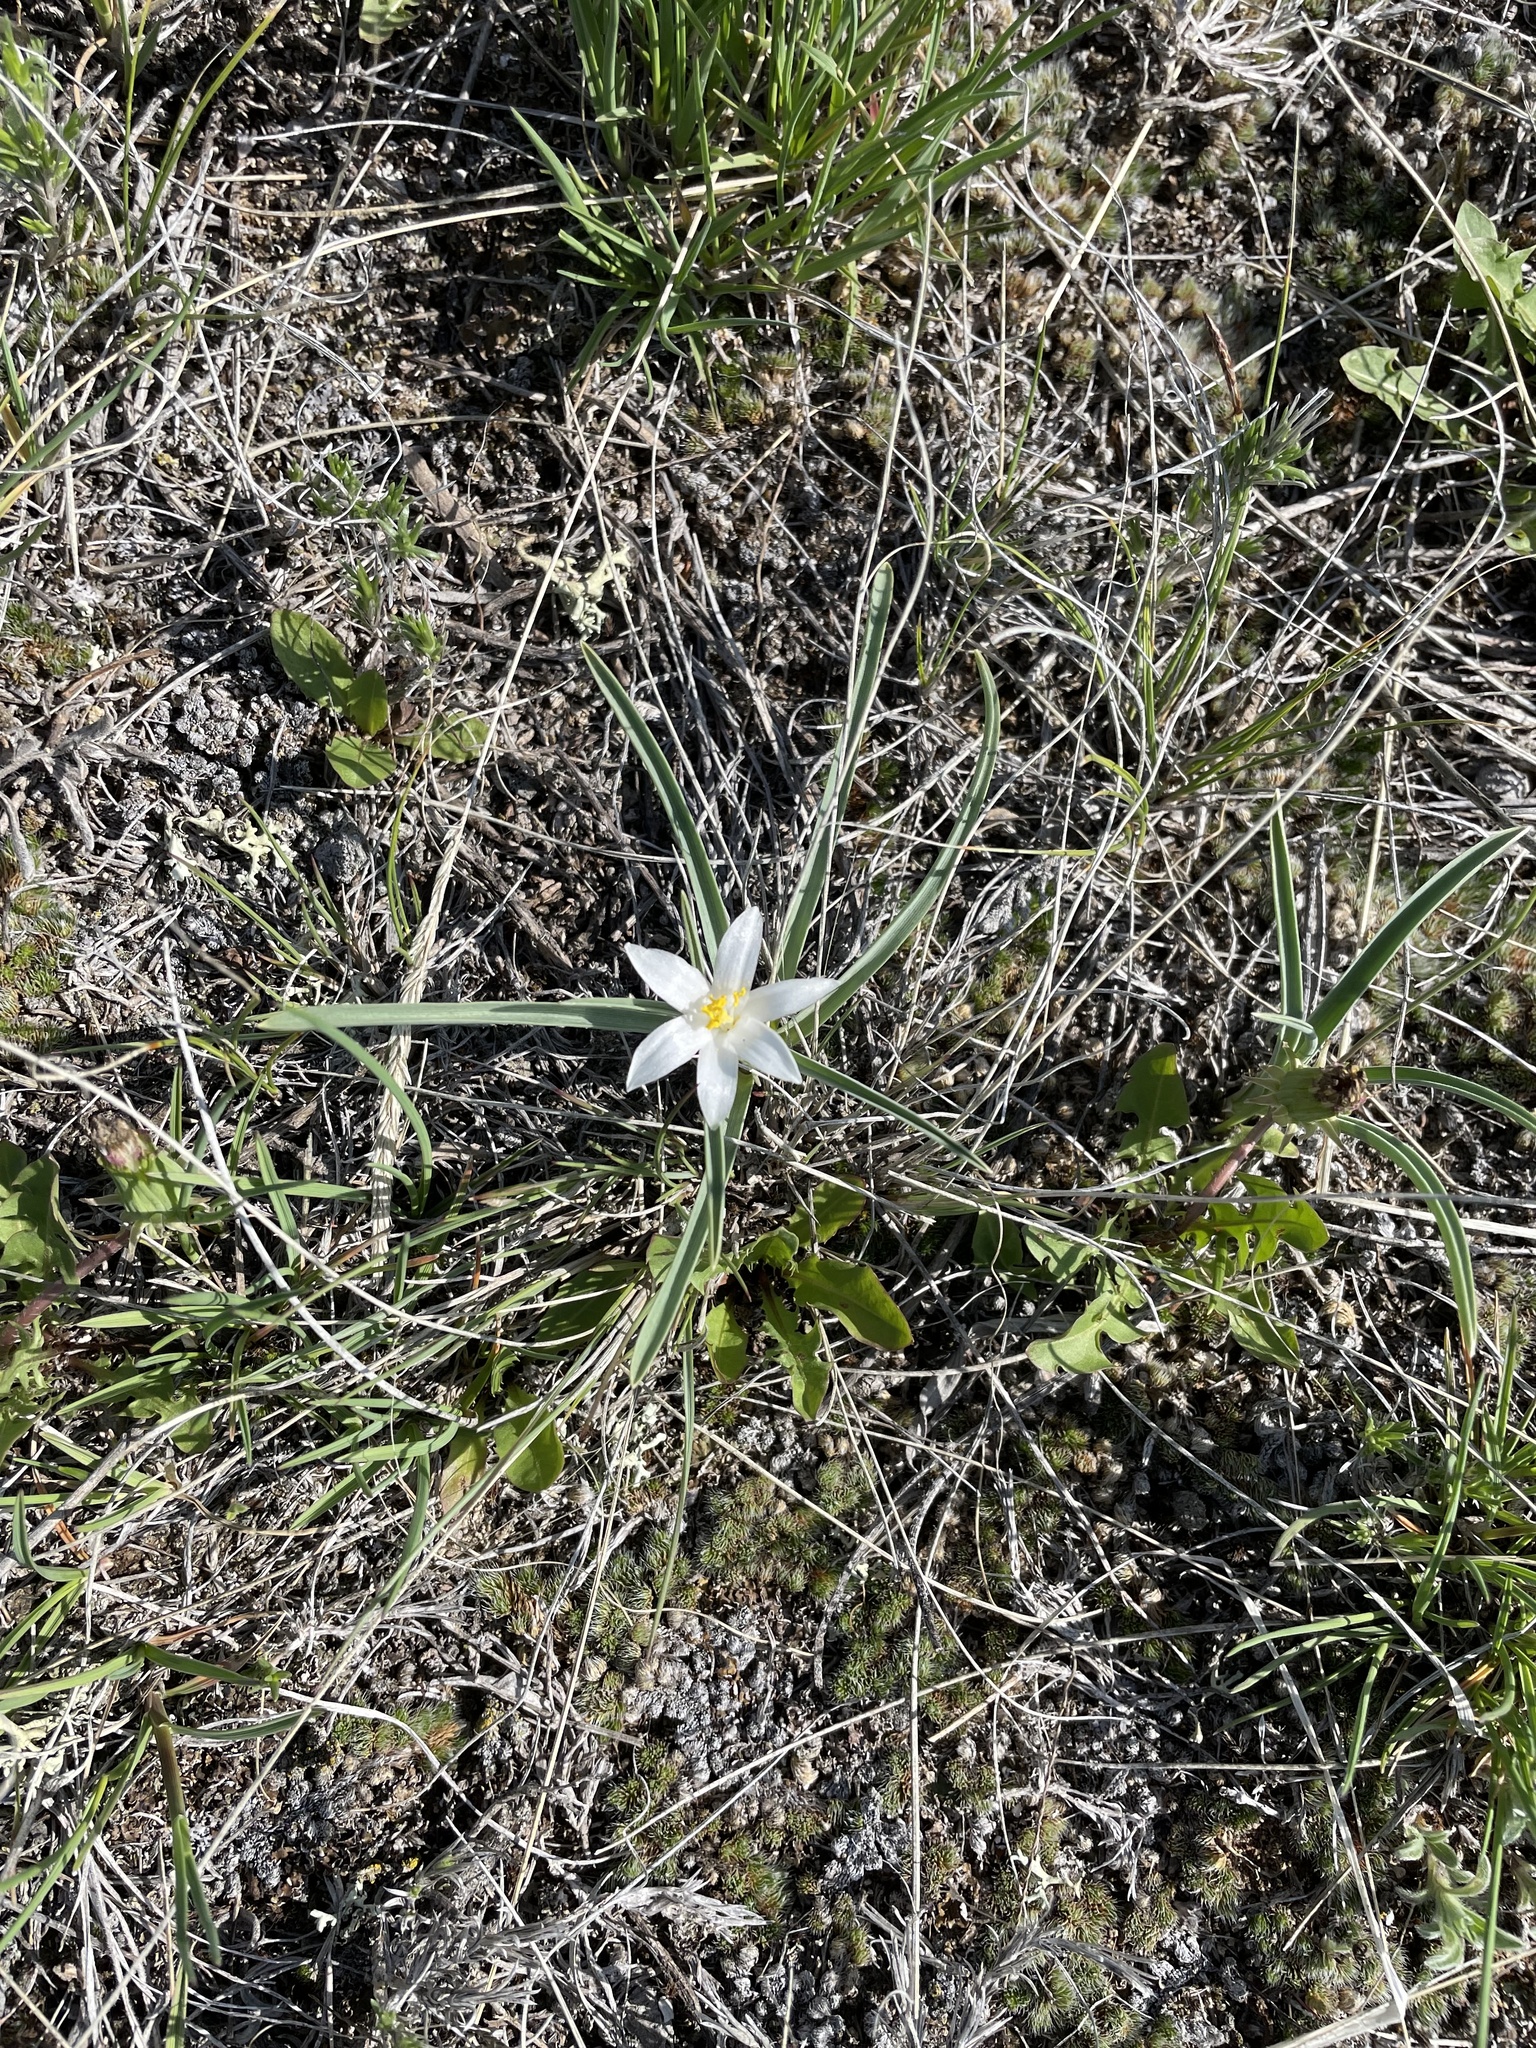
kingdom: Plantae
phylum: Tracheophyta
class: Liliopsida
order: Asparagales
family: Asparagaceae
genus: Leucocrinum
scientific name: Leucocrinum montanum
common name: Mountain-lily
